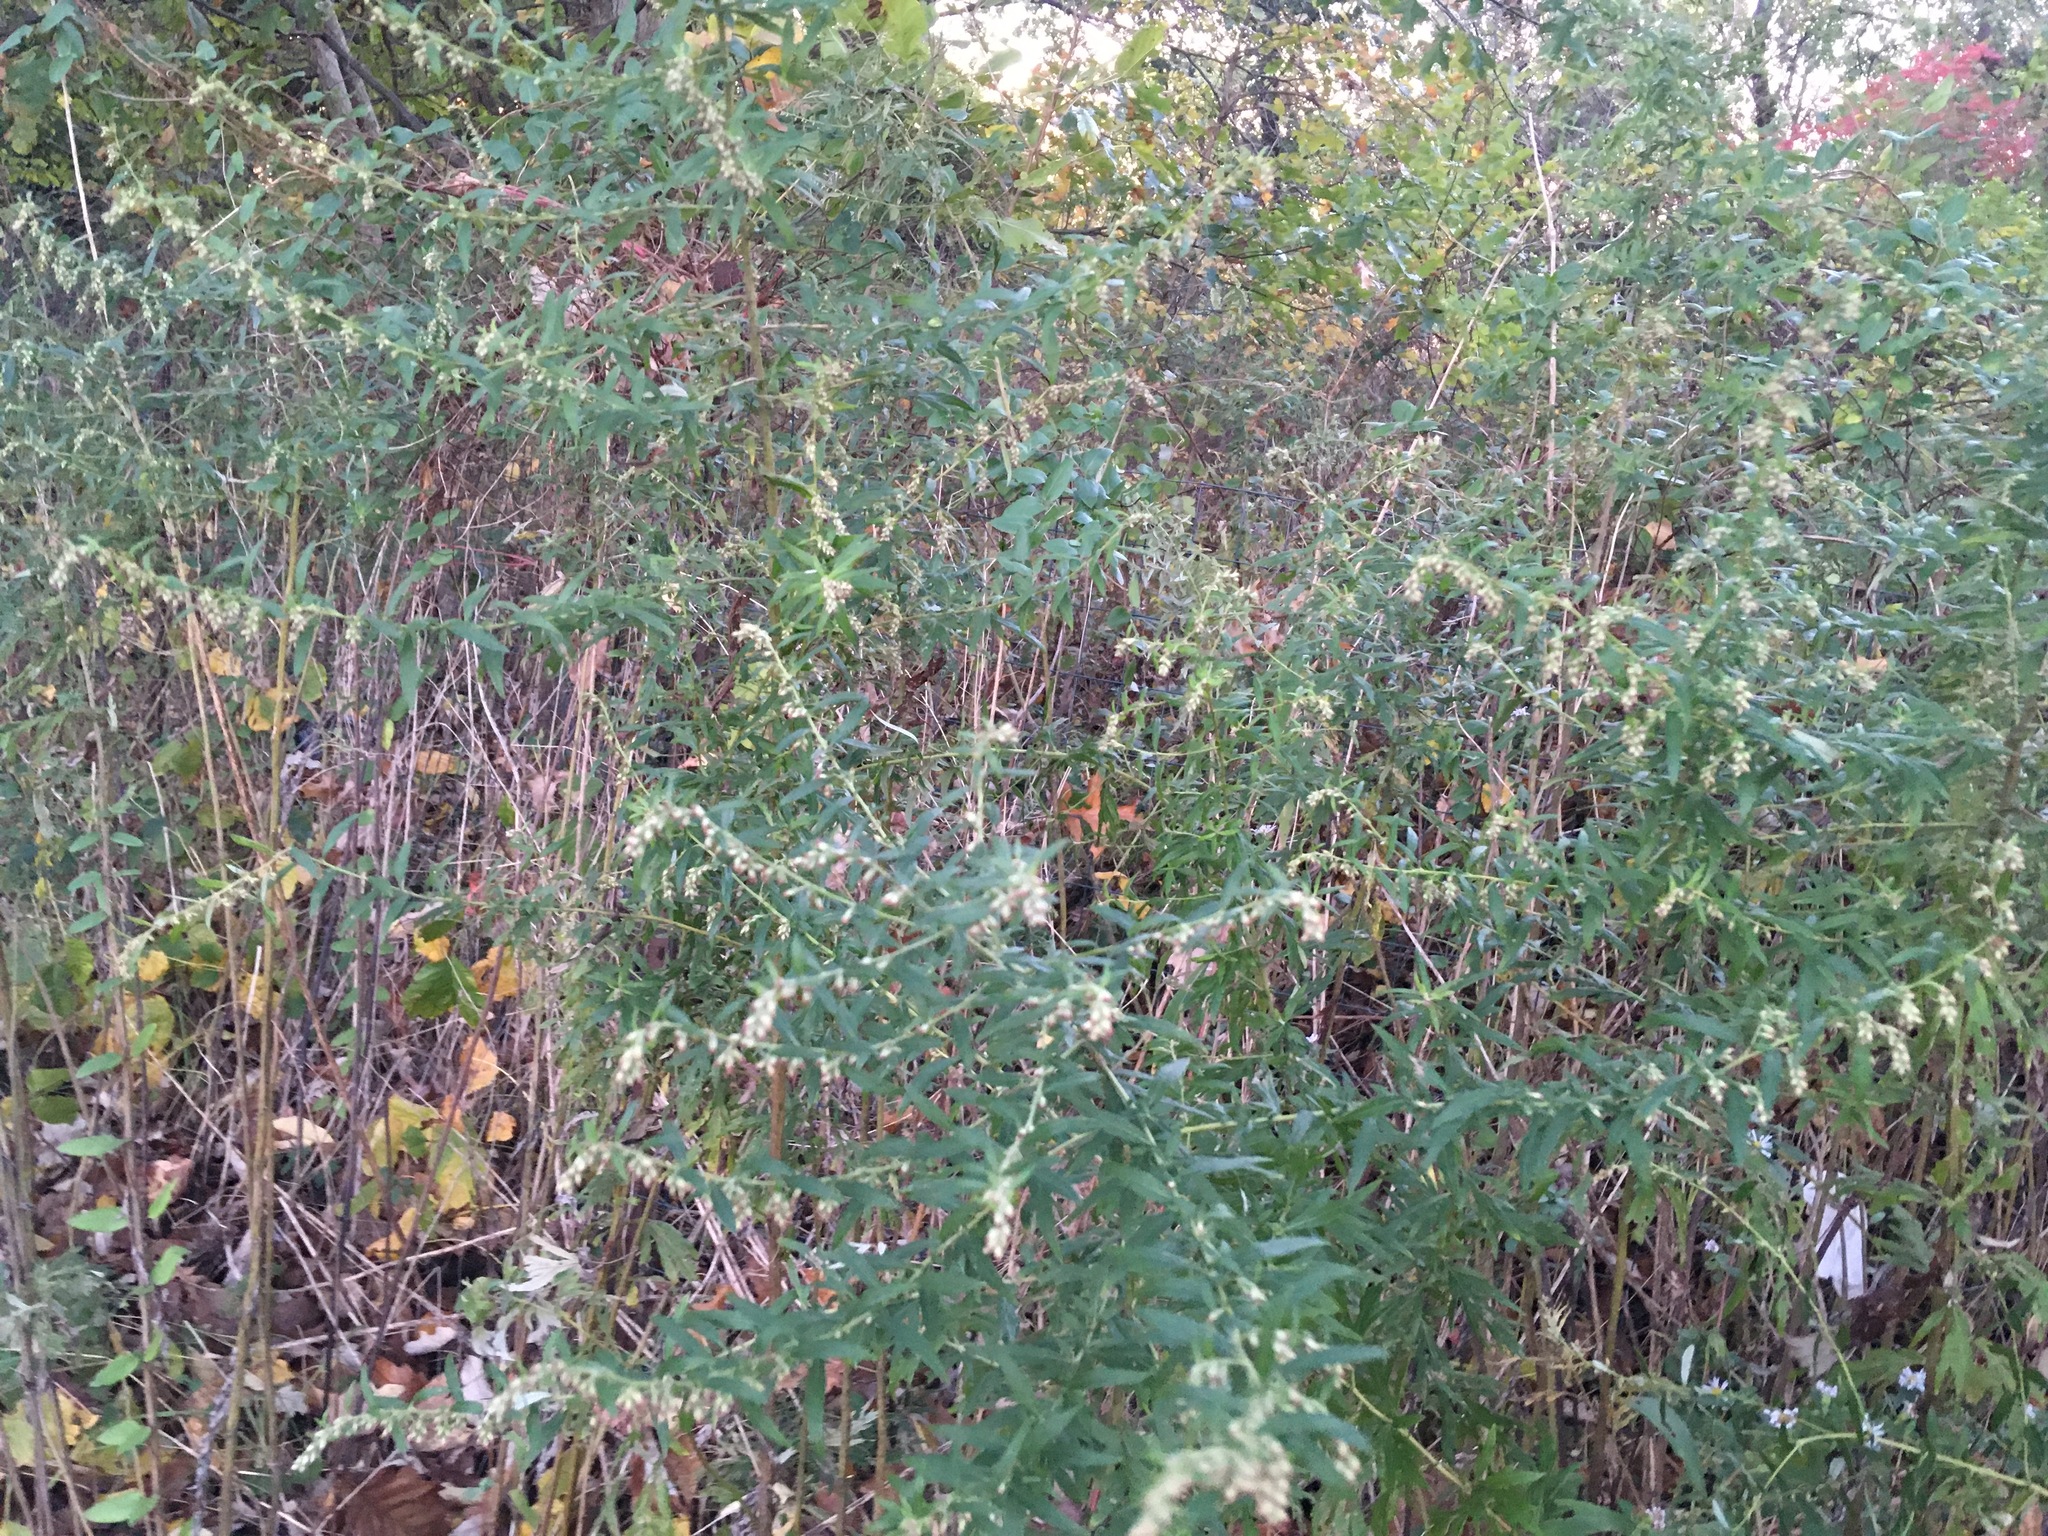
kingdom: Plantae
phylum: Tracheophyta
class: Magnoliopsida
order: Asterales
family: Asteraceae
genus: Artemisia
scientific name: Artemisia vulgaris
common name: Mugwort
